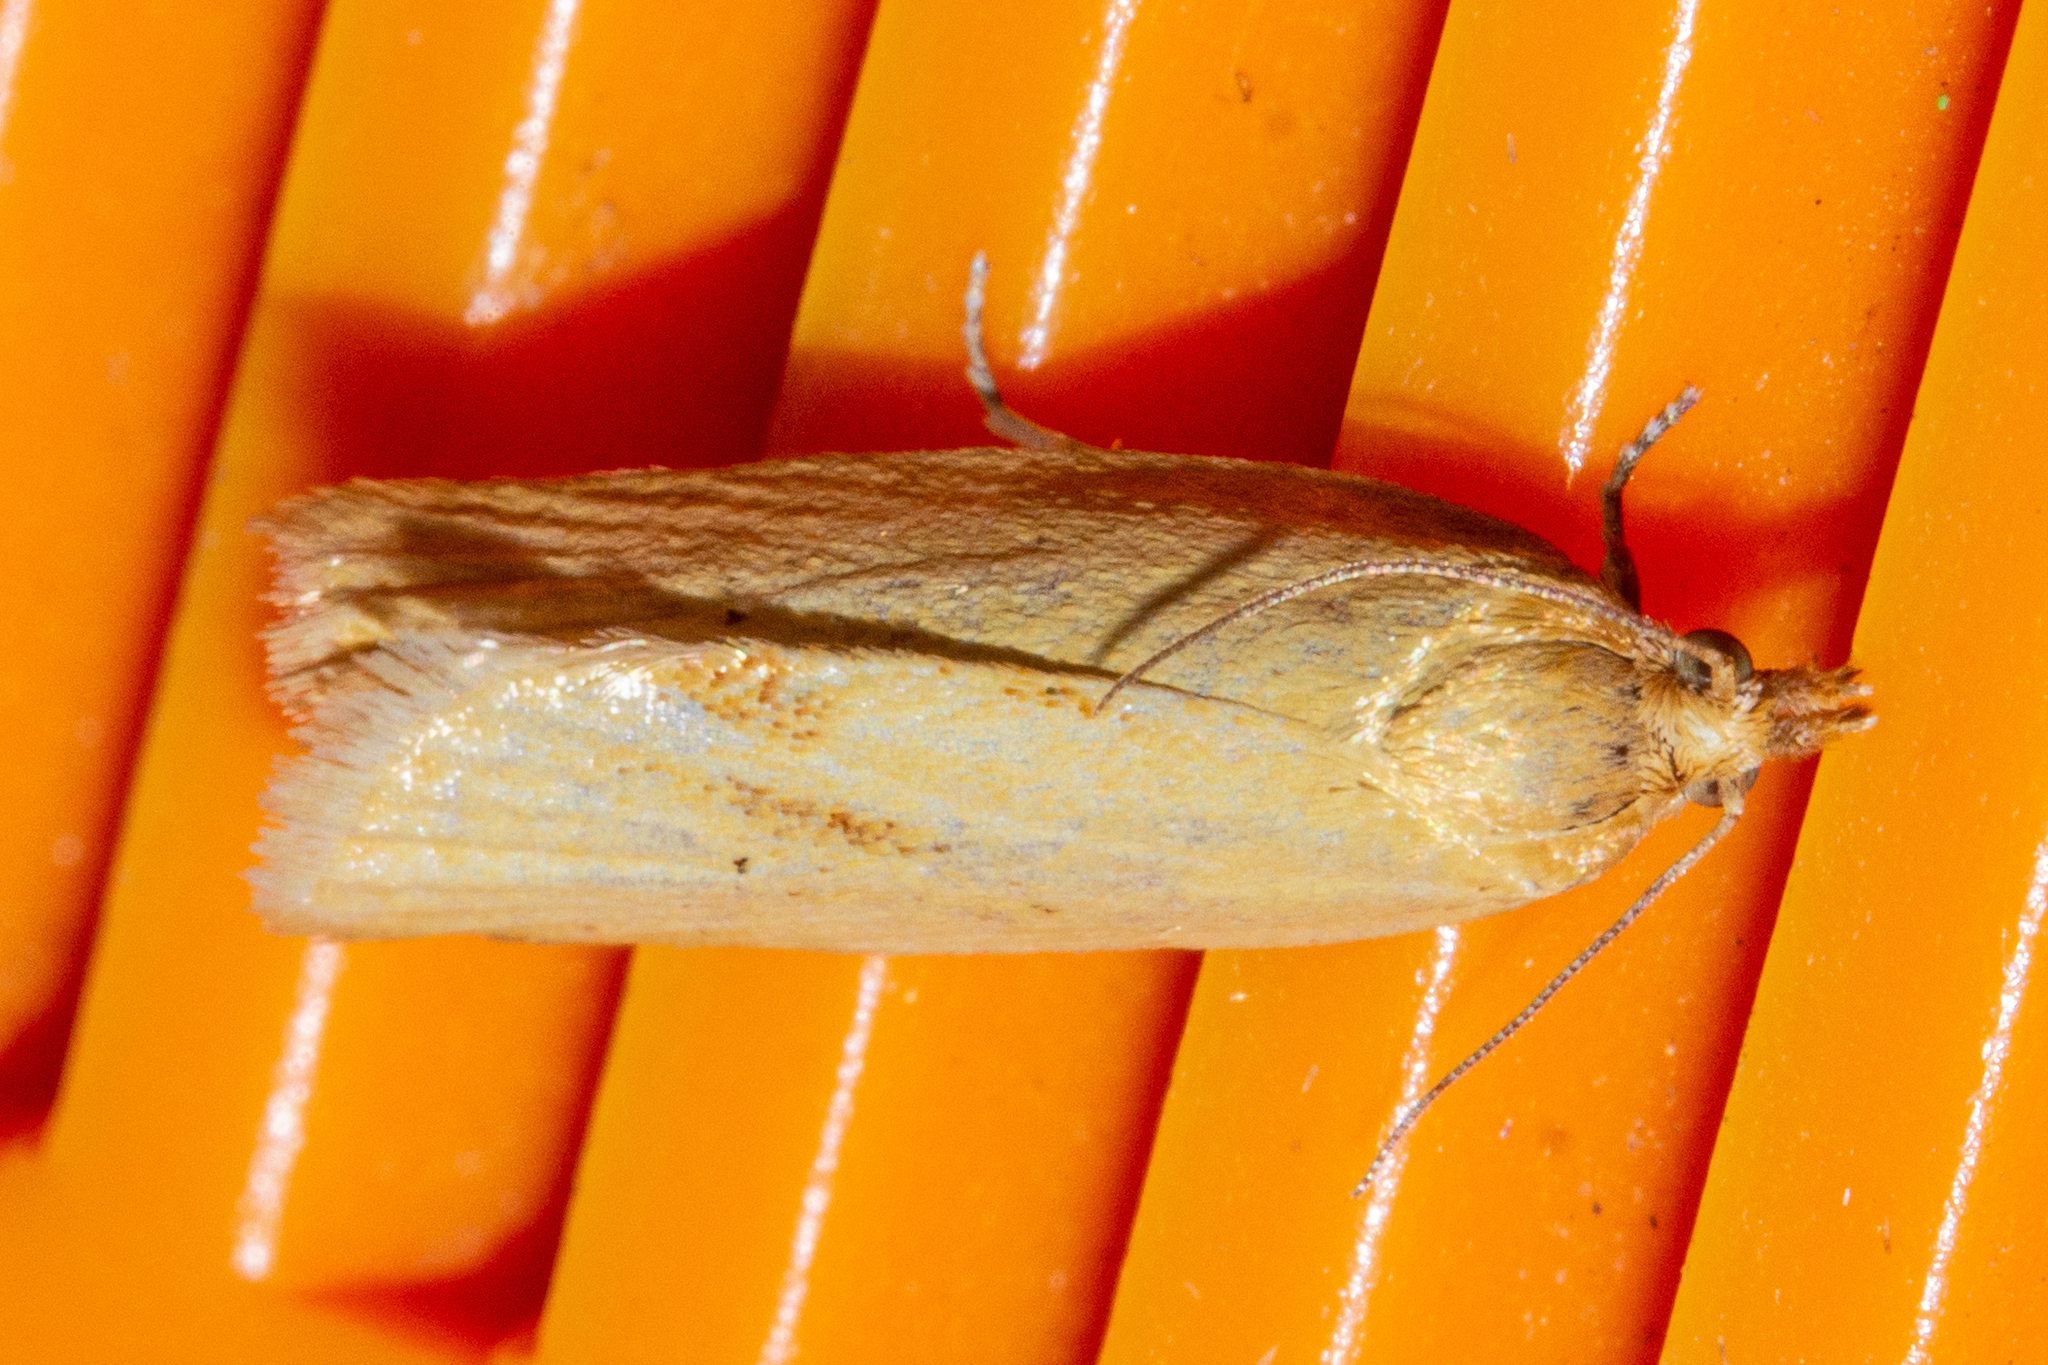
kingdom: Animalia
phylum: Arthropoda
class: Insecta
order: Lepidoptera
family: Tortricidae
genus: Clepsis
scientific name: Clepsis
